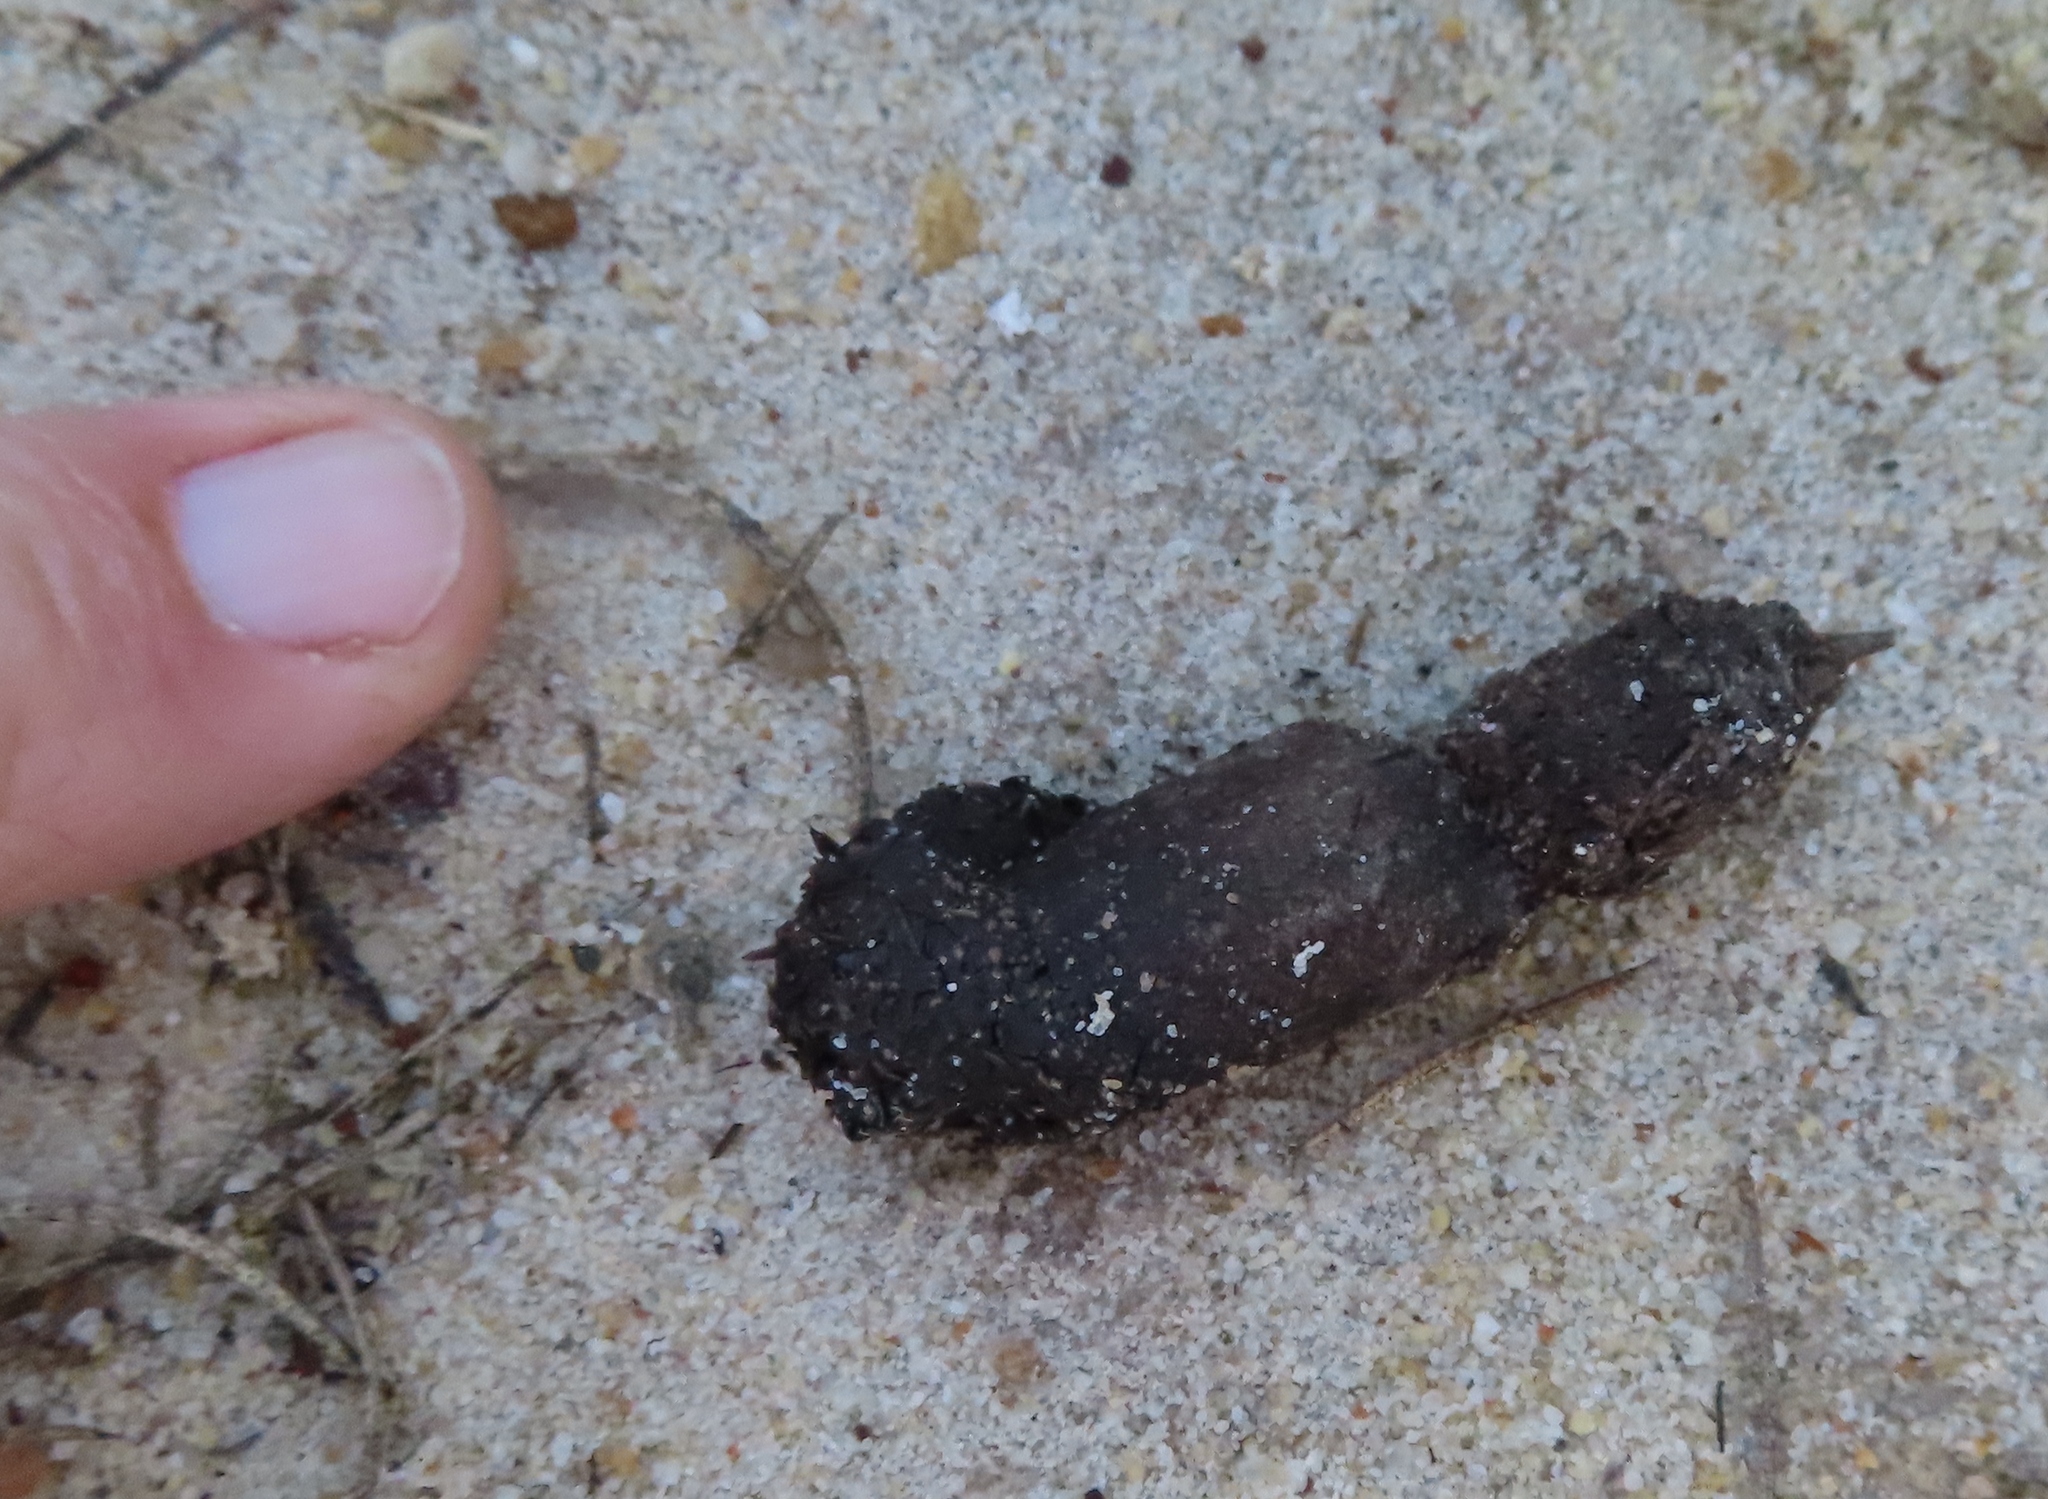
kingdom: Animalia
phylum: Chordata
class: Mammalia
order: Carnivora
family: Herpestidae
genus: Galerella
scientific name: Galerella pulverulenta
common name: Cape gray mongoose
